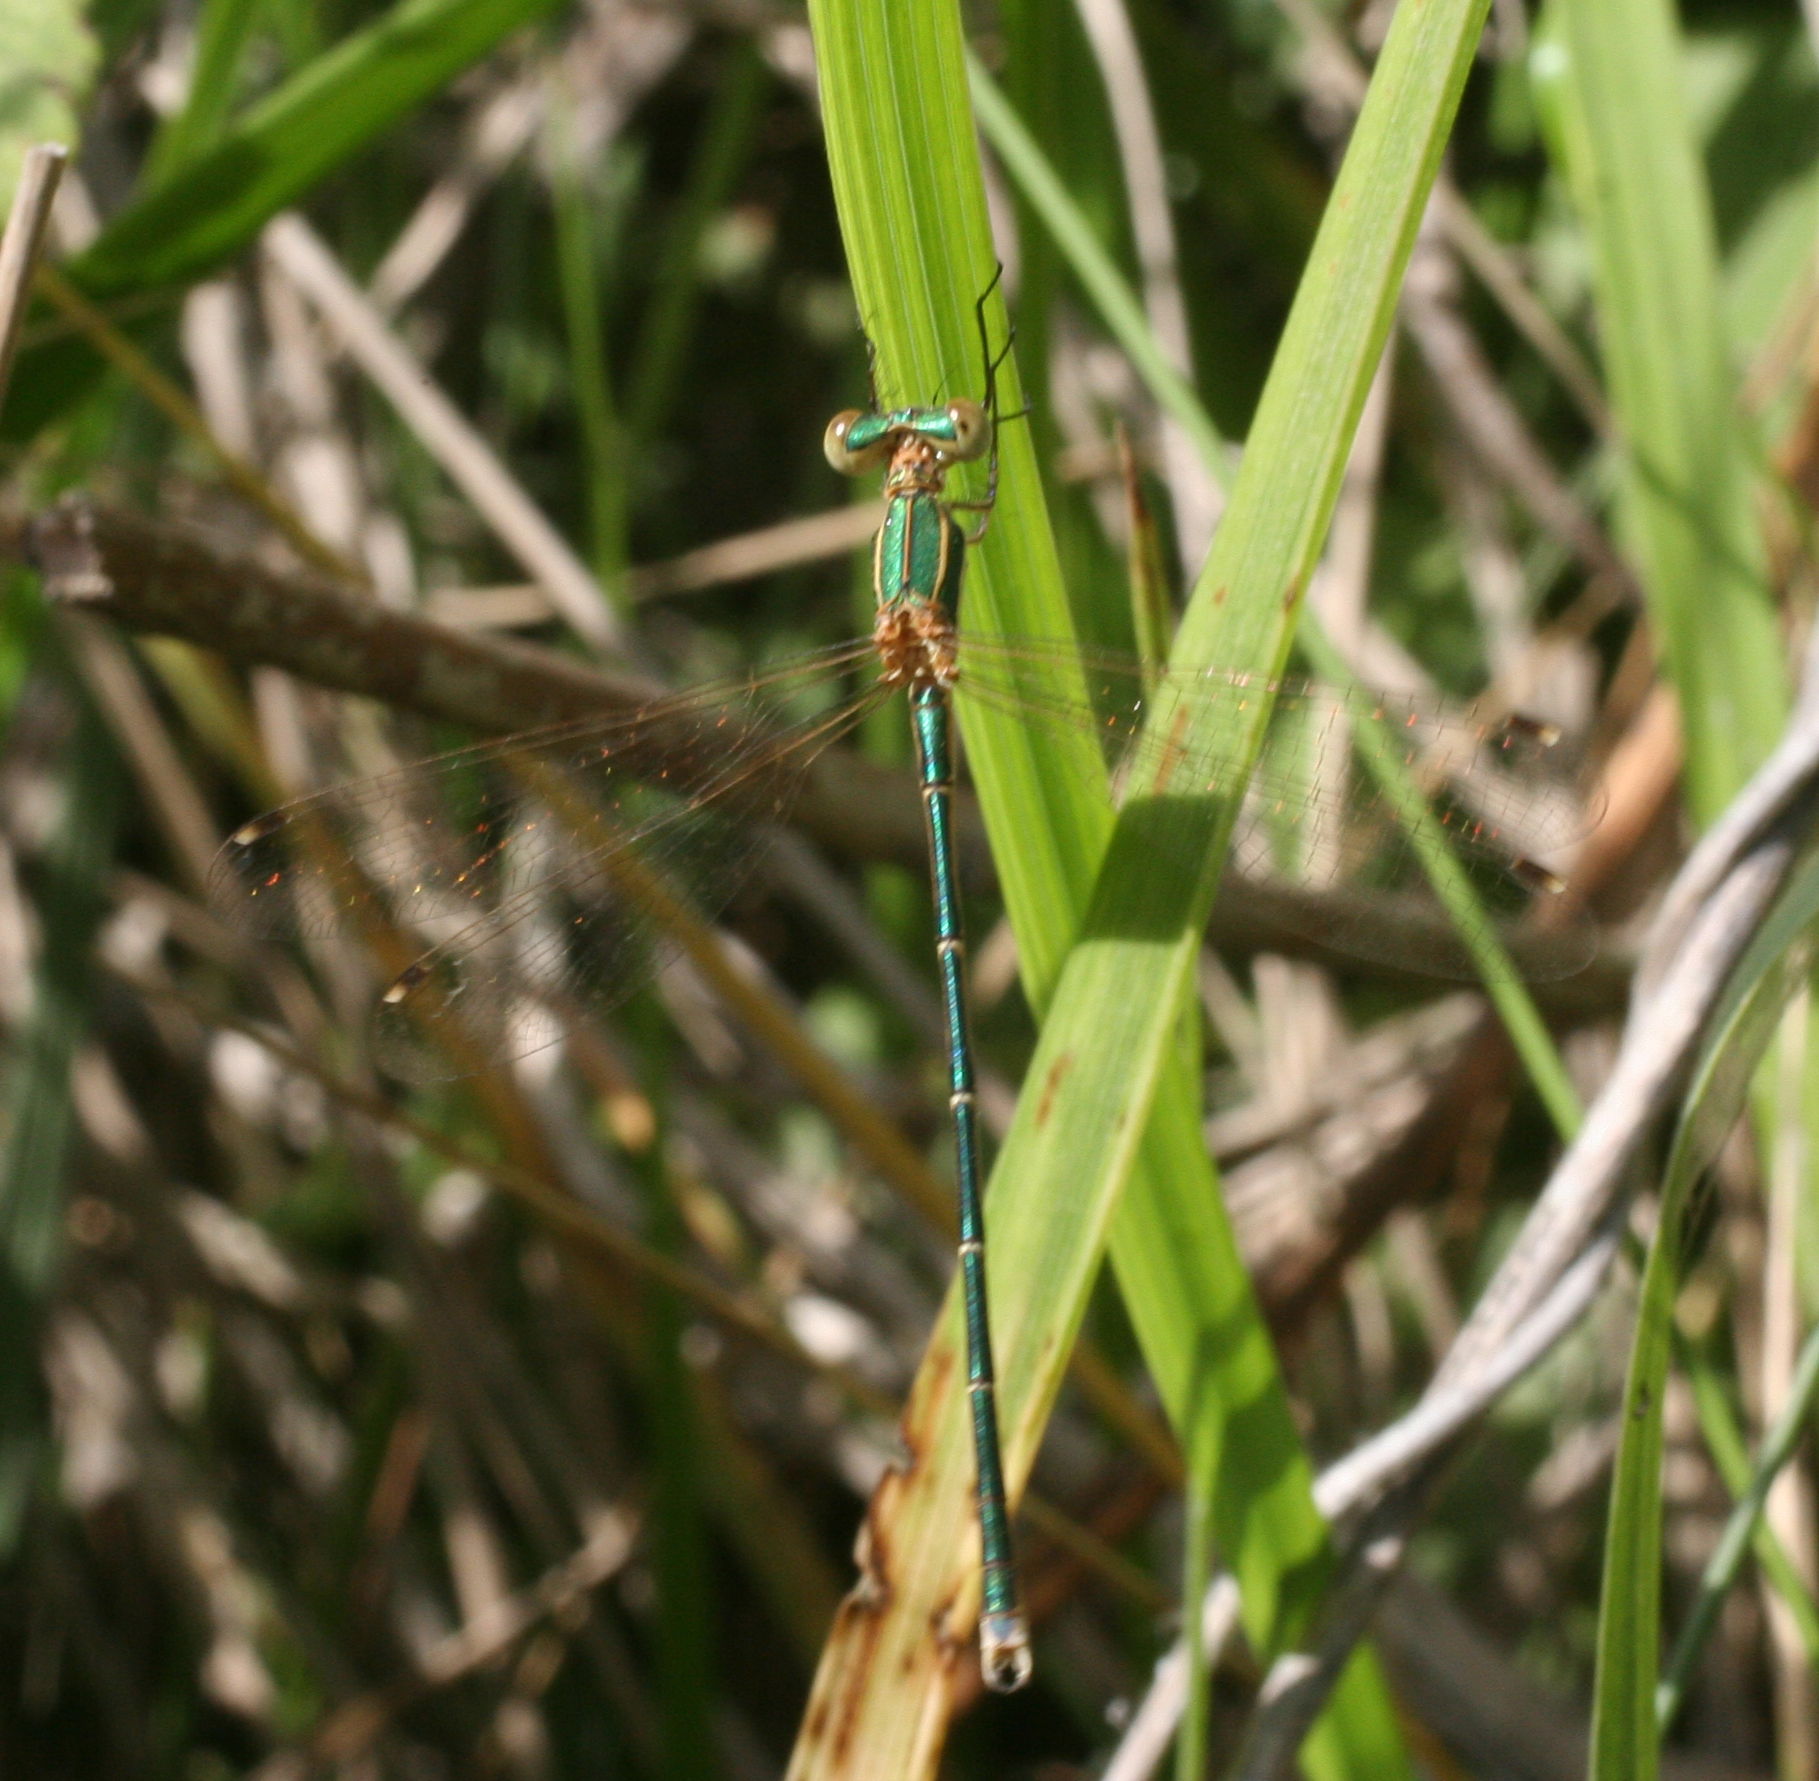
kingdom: Animalia
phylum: Arthropoda
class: Insecta
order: Odonata
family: Lestidae
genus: Lestes
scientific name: Lestes barbarus
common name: Migrant spreadwing
